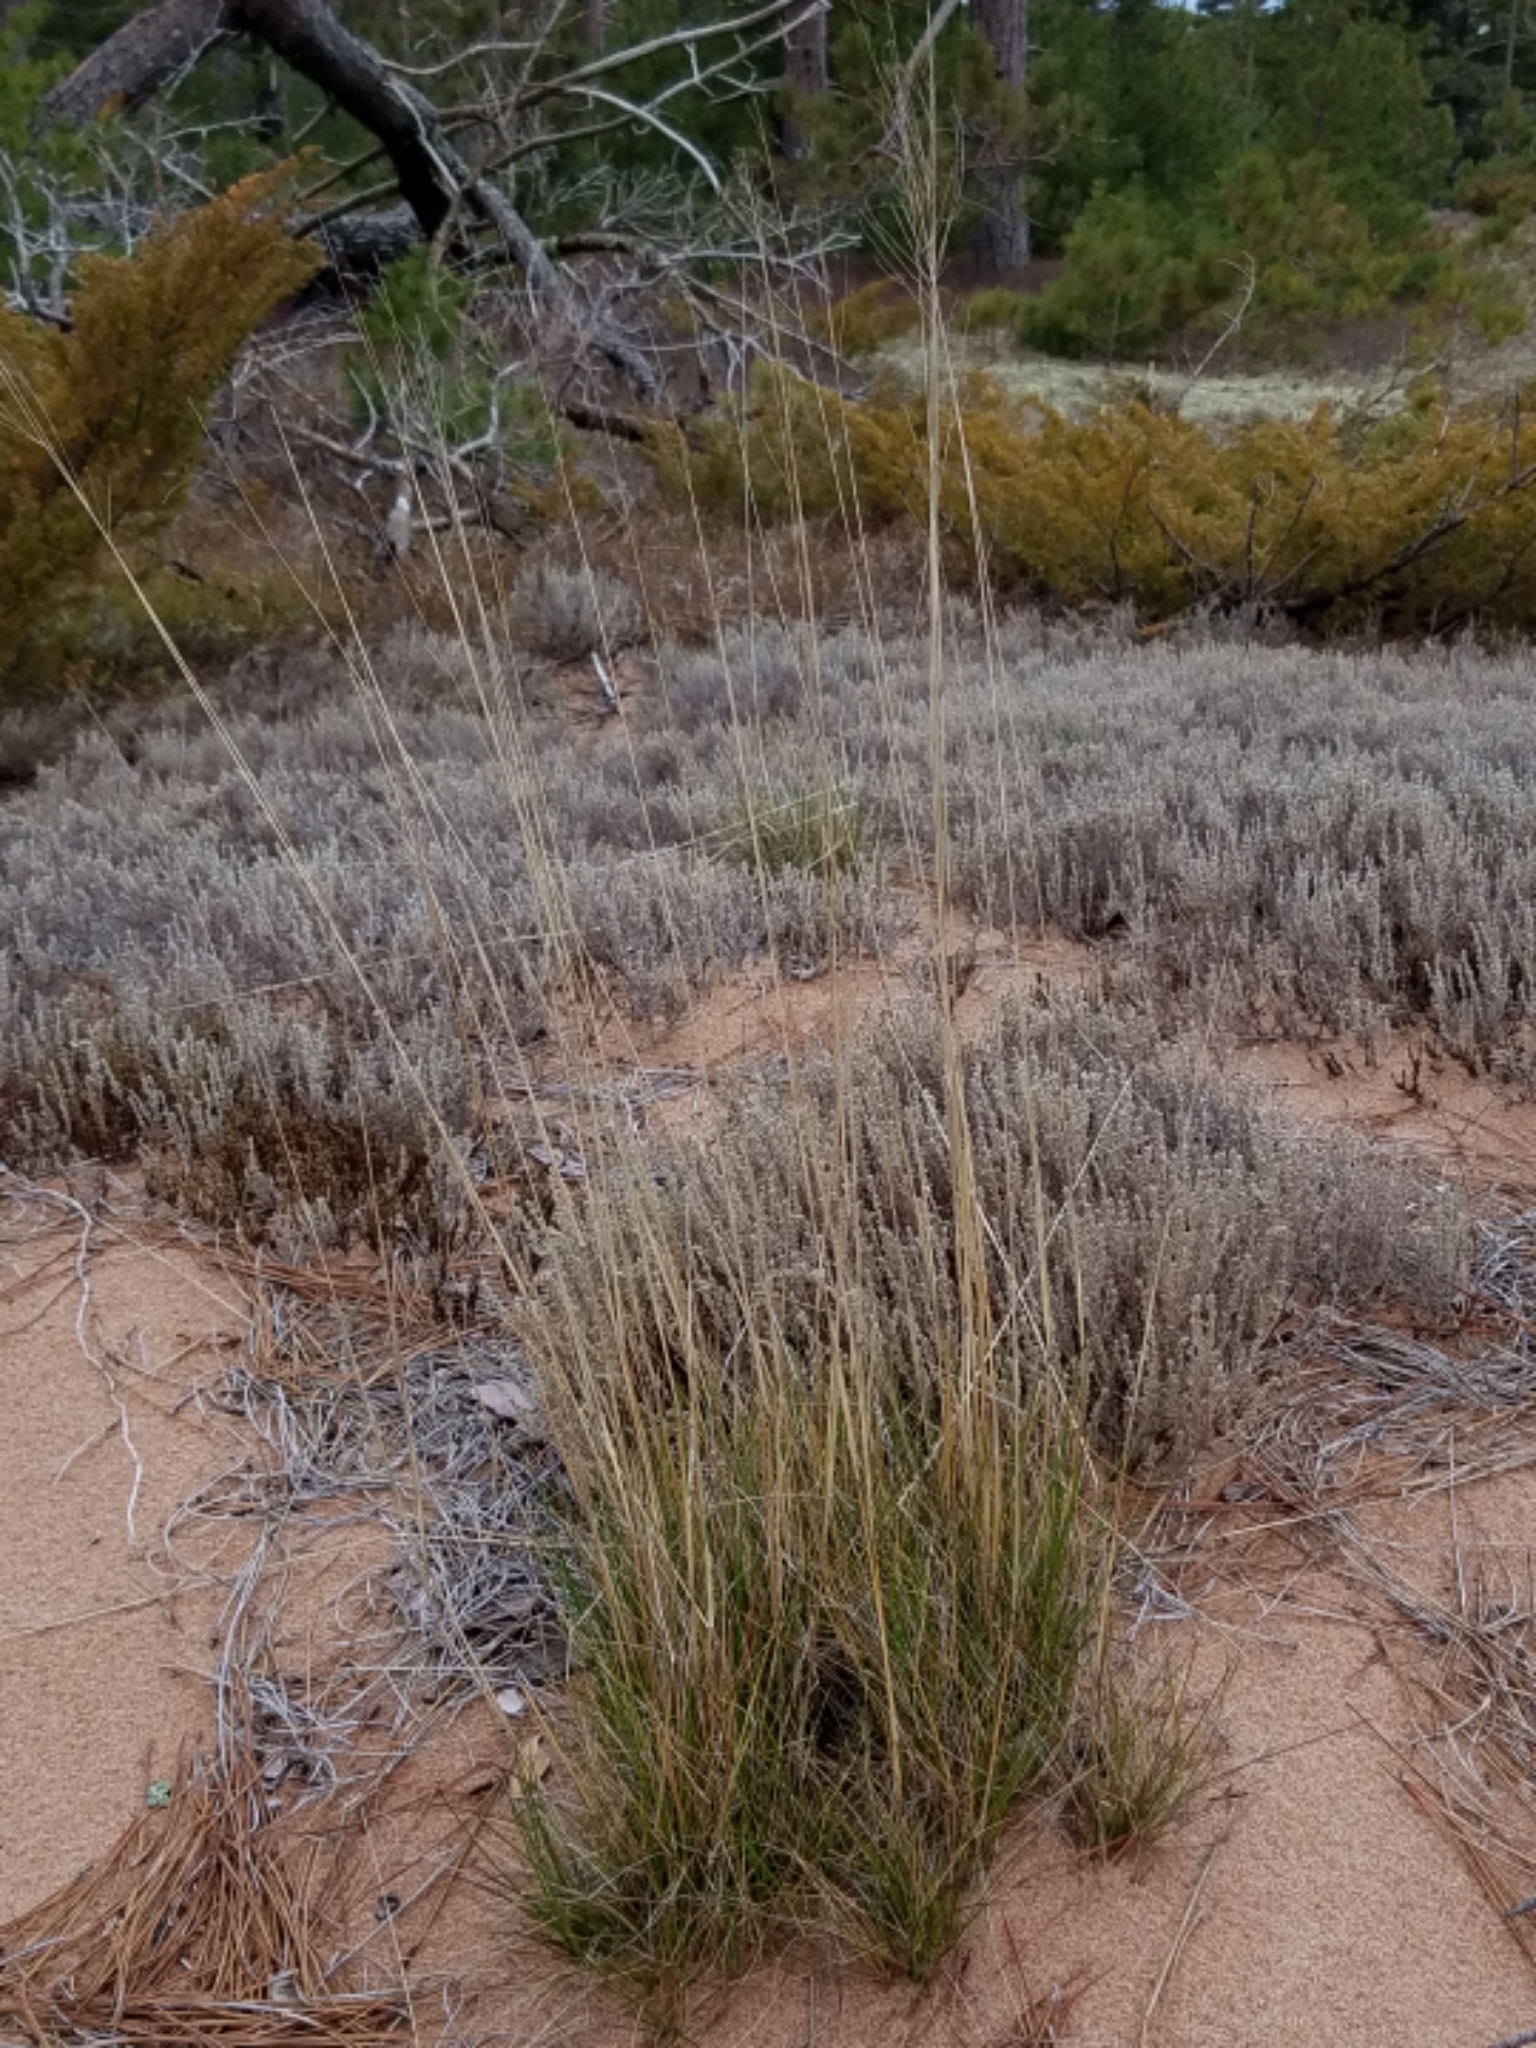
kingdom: Plantae
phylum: Tracheophyta
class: Liliopsida
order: Poales
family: Poaceae
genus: Avenella
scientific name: Avenella flexuosa
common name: Wavy hairgrass
